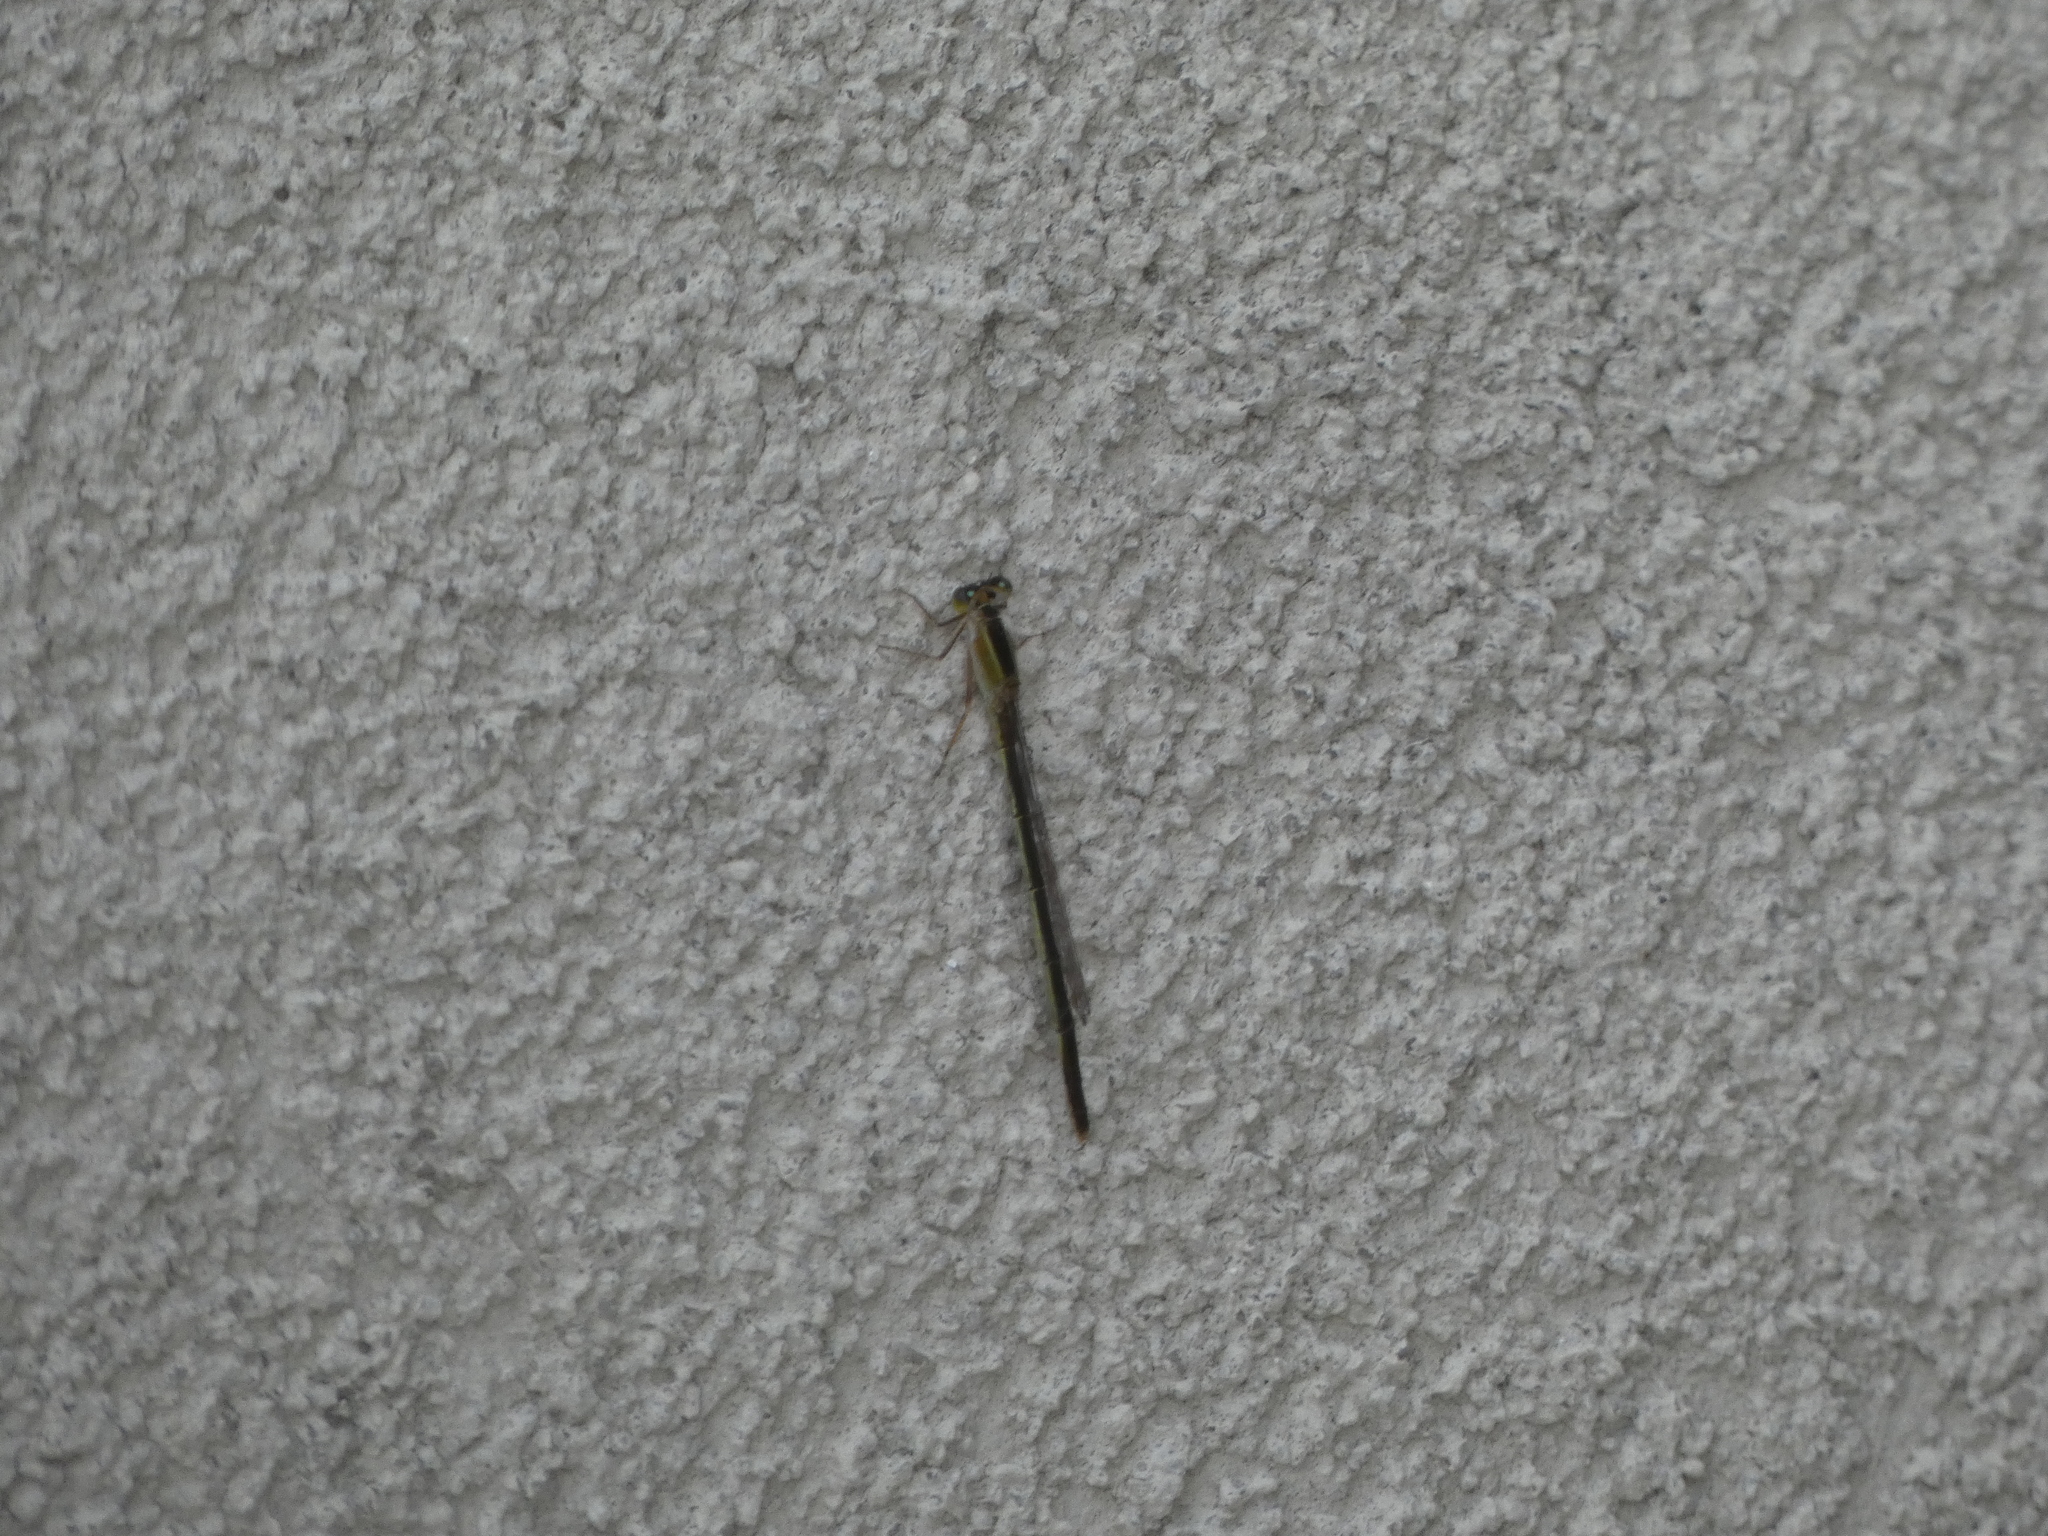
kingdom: Animalia
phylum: Arthropoda
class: Insecta
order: Odonata
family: Coenagrionidae
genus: Ischnura
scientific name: Ischnura ramburii
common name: Rambur's forktail
